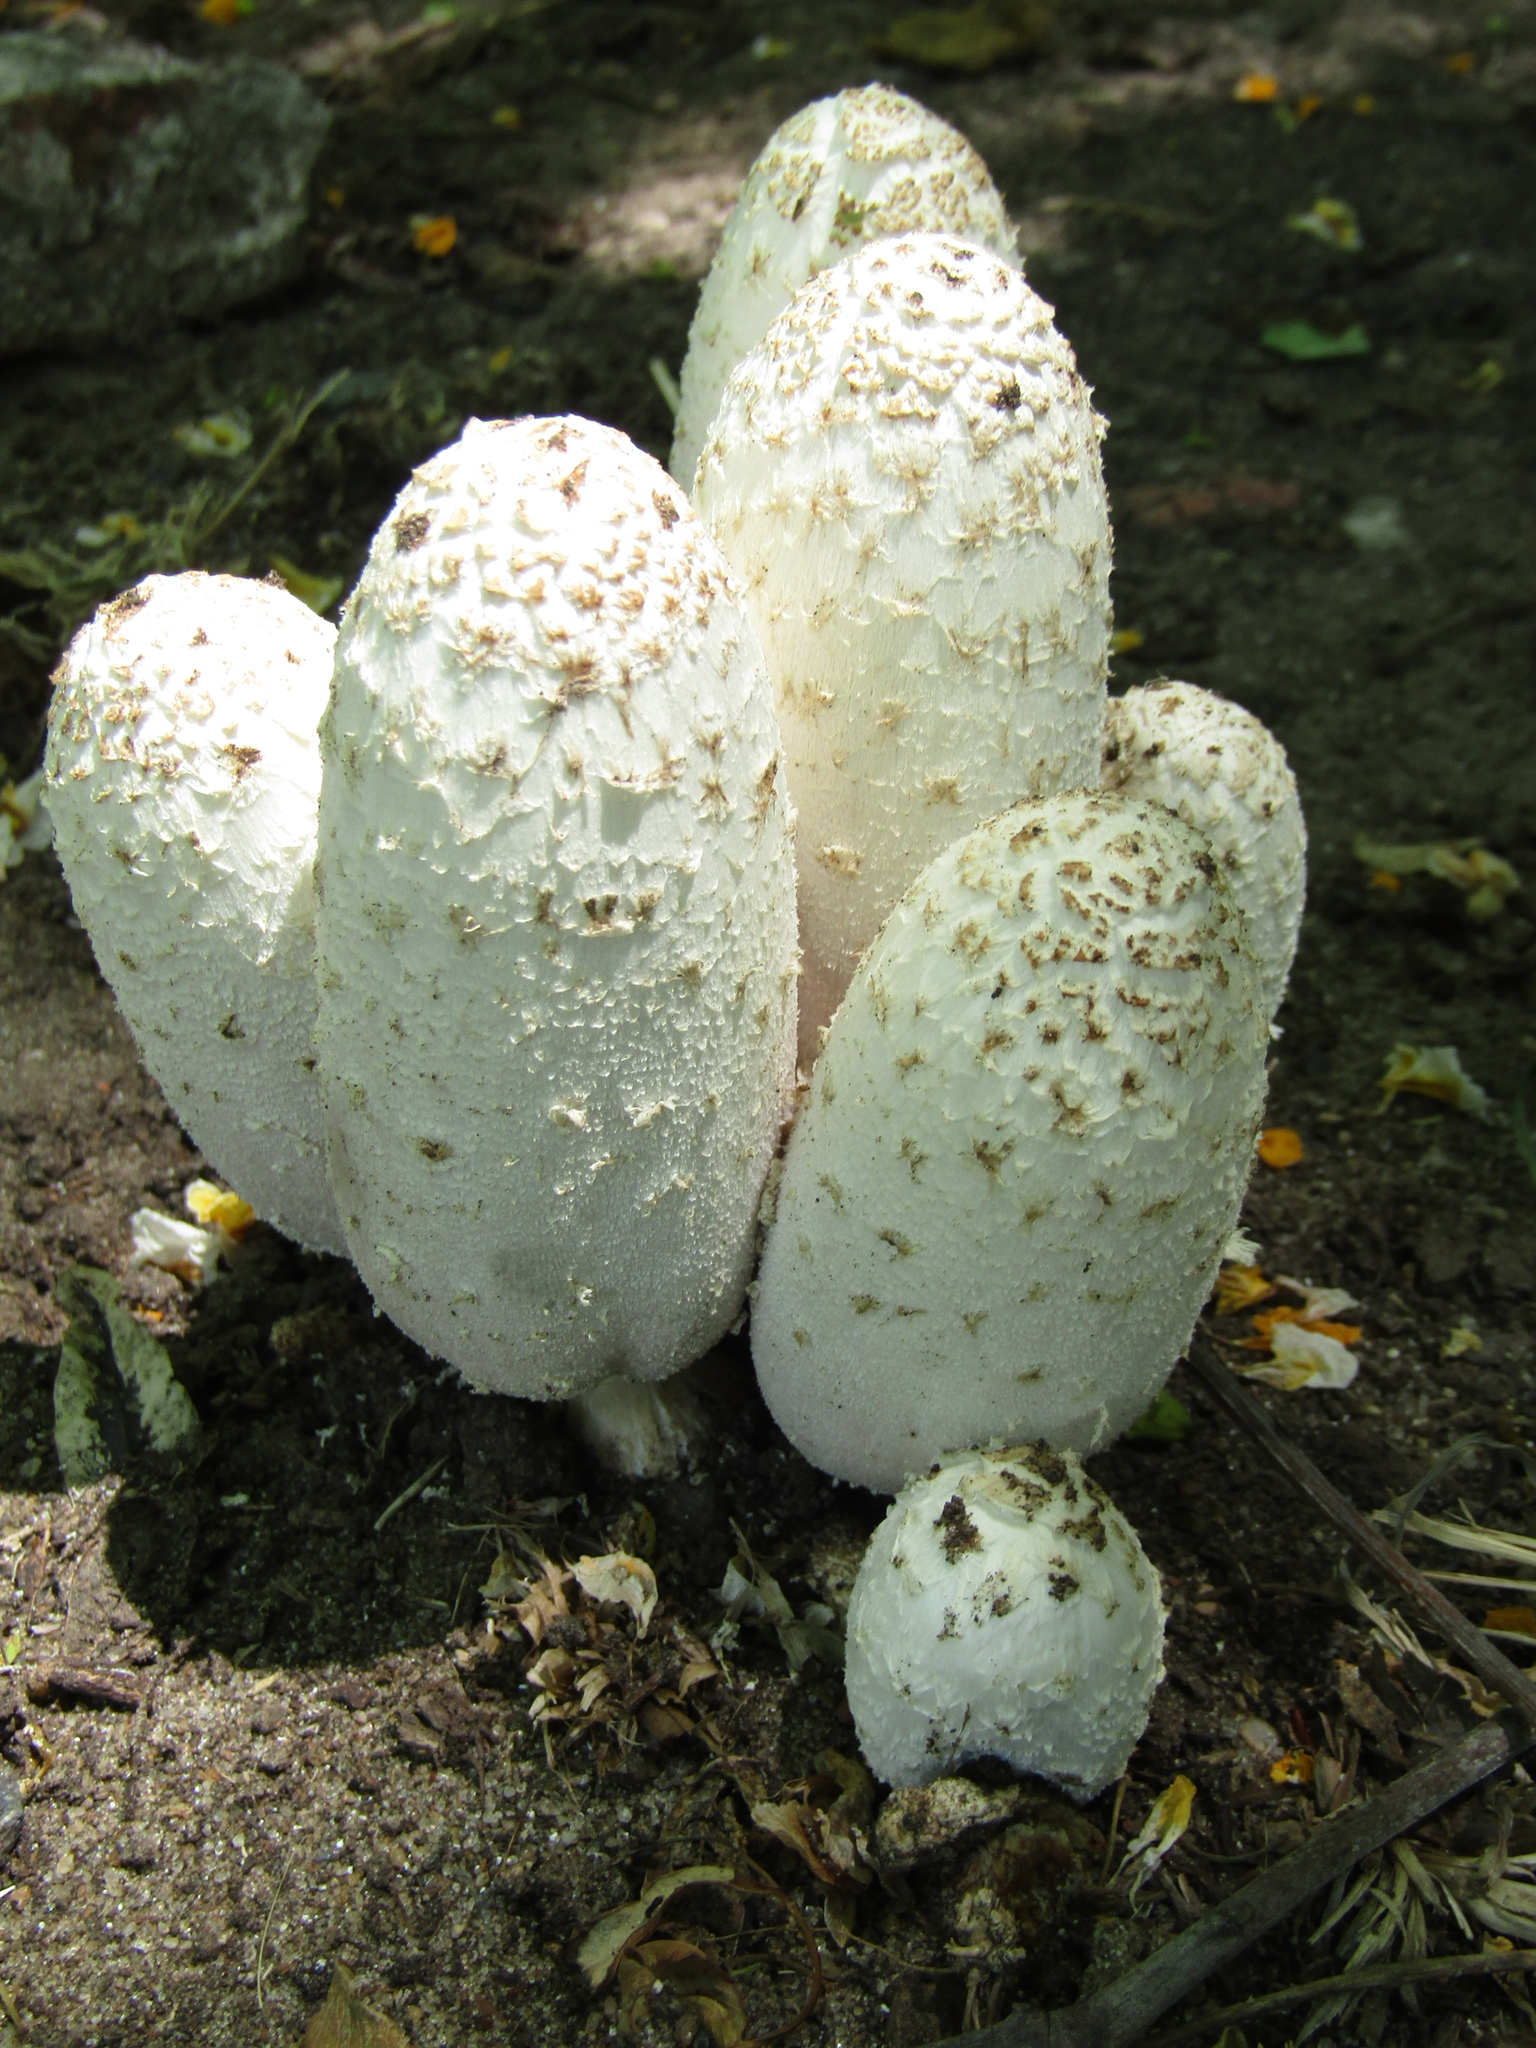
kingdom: Fungi
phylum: Basidiomycota
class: Agaricomycetes
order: Agaricales
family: Agaricaceae
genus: Coprinus
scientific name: Coprinus comatus
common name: Lawyer's wig
